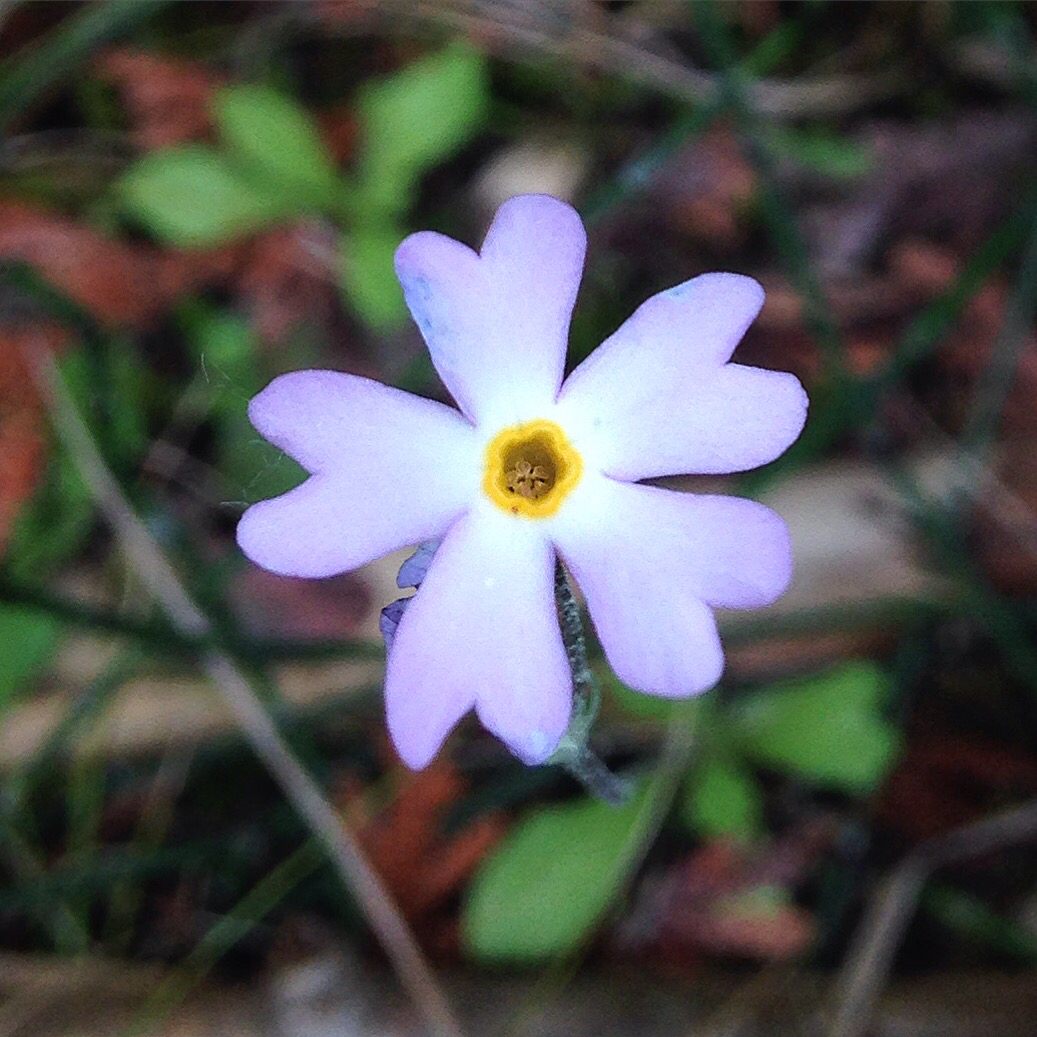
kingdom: Plantae
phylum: Tracheophyta
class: Magnoliopsida
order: Ericales
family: Primulaceae
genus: Primula
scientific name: Primula mistassinica
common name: Bird's-eye primrose
